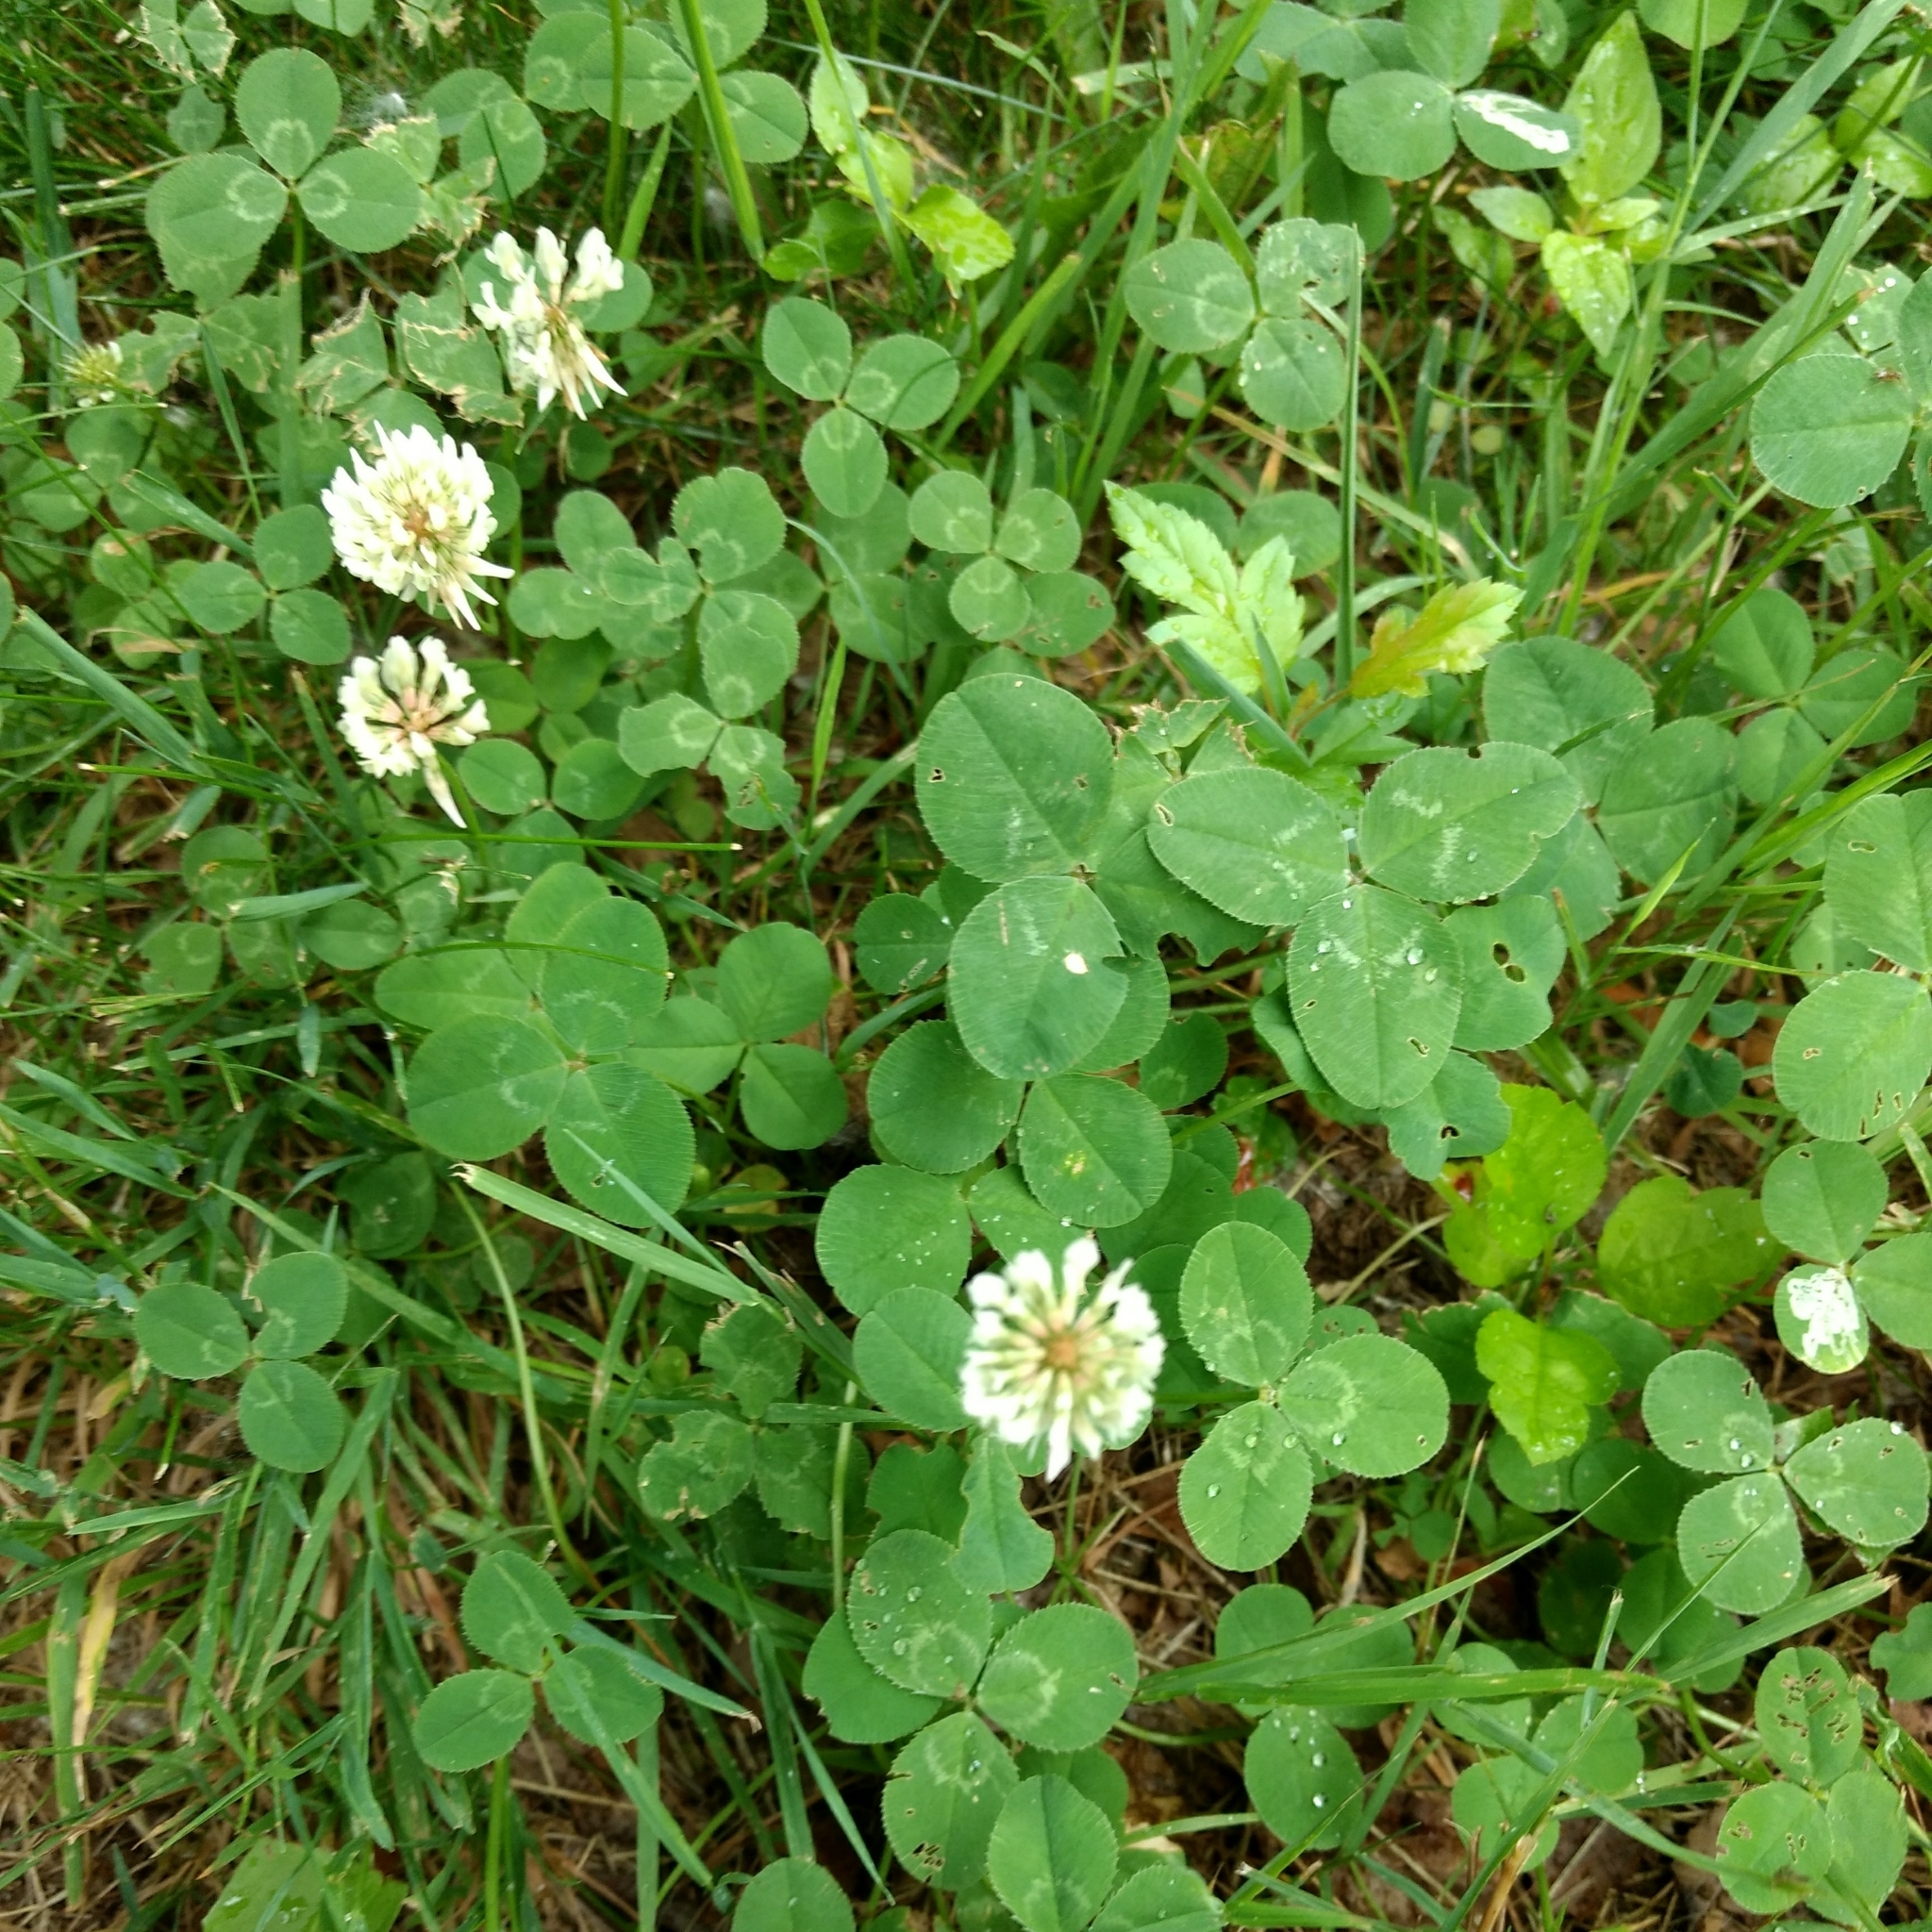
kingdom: Plantae
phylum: Tracheophyta
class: Magnoliopsida
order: Fabales
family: Fabaceae
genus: Trifolium
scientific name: Trifolium repens
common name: White clover
